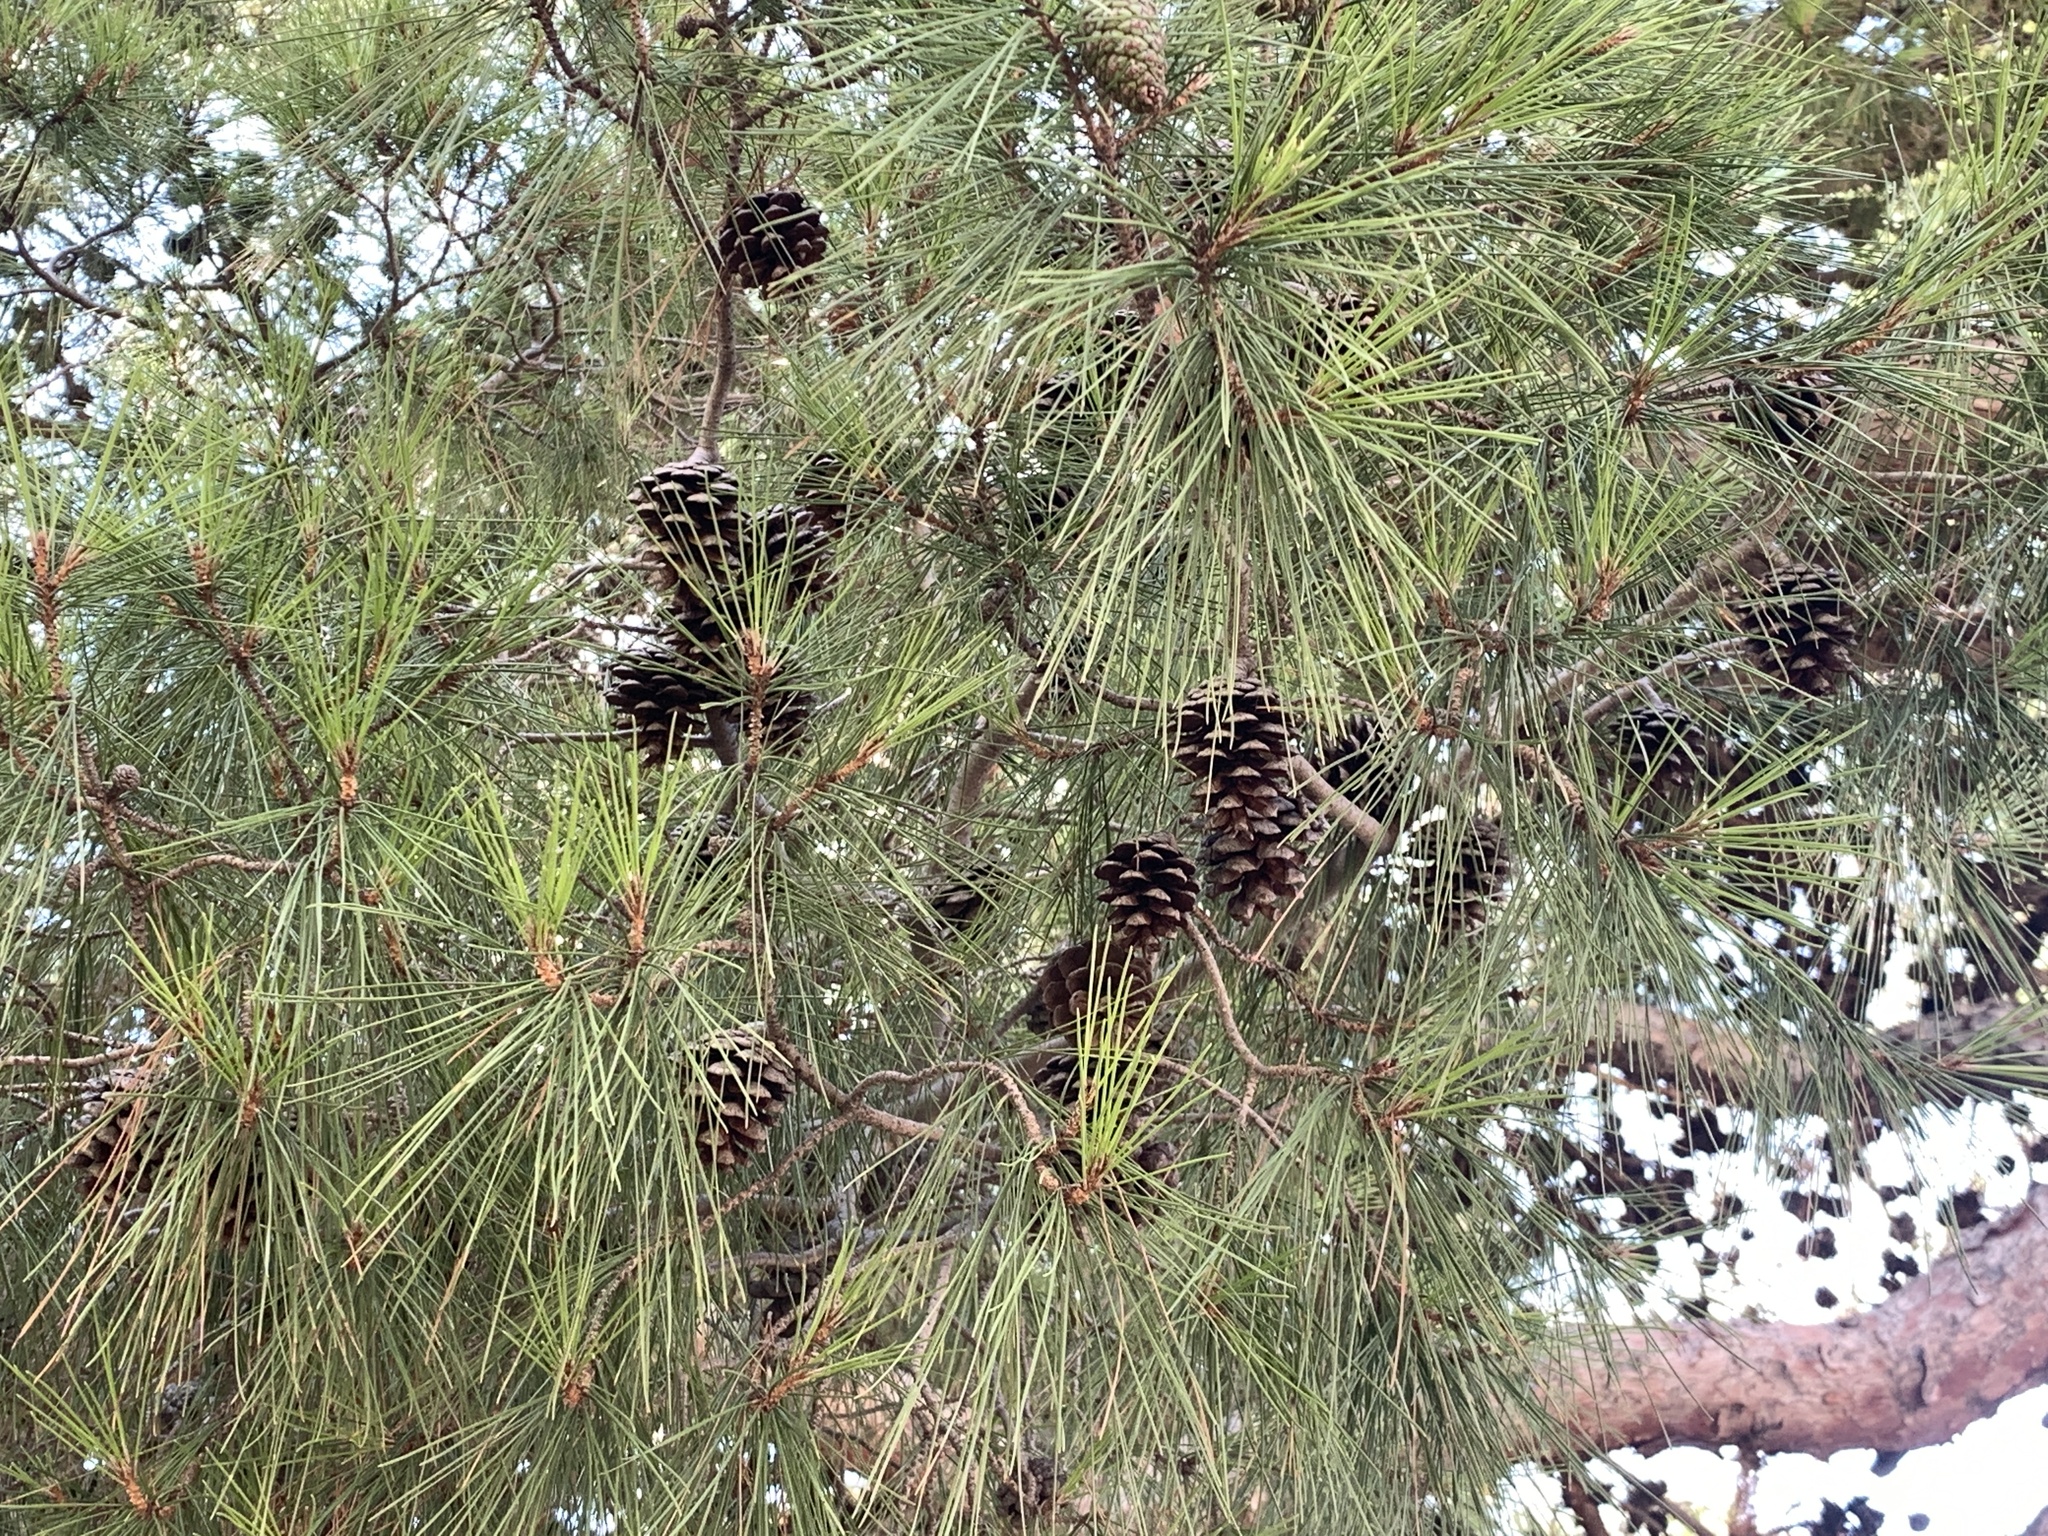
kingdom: Plantae
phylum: Tracheophyta
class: Pinopsida
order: Pinales
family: Pinaceae
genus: Pinus
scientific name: Pinus halepensis
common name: Aleppo pine
